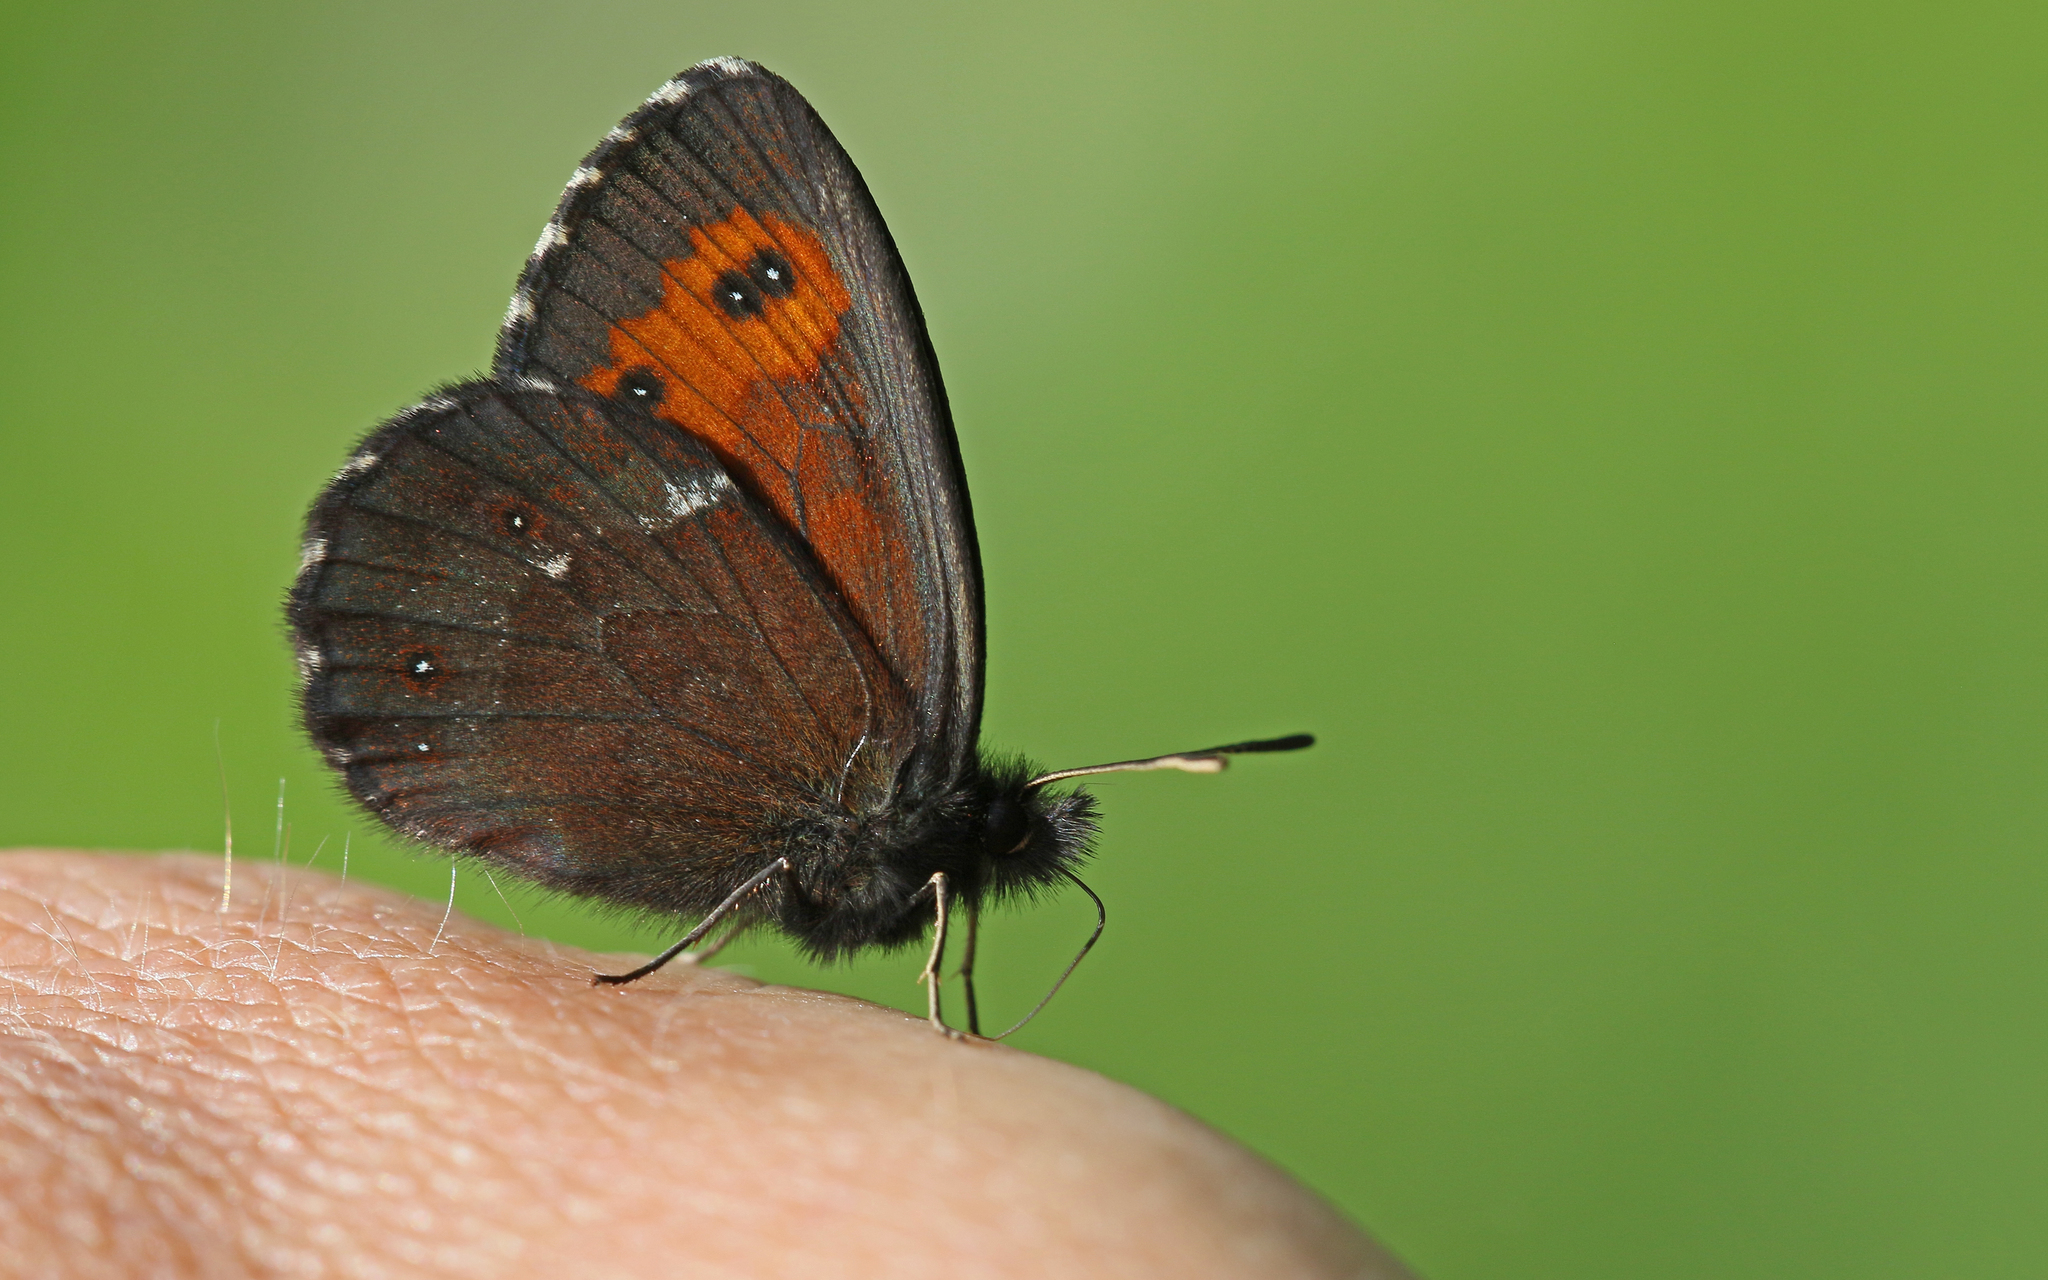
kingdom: Animalia
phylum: Arthropoda
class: Insecta
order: Lepidoptera
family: Nymphalidae
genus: Erebia
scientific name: Erebia euryale
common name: Large ringlet
